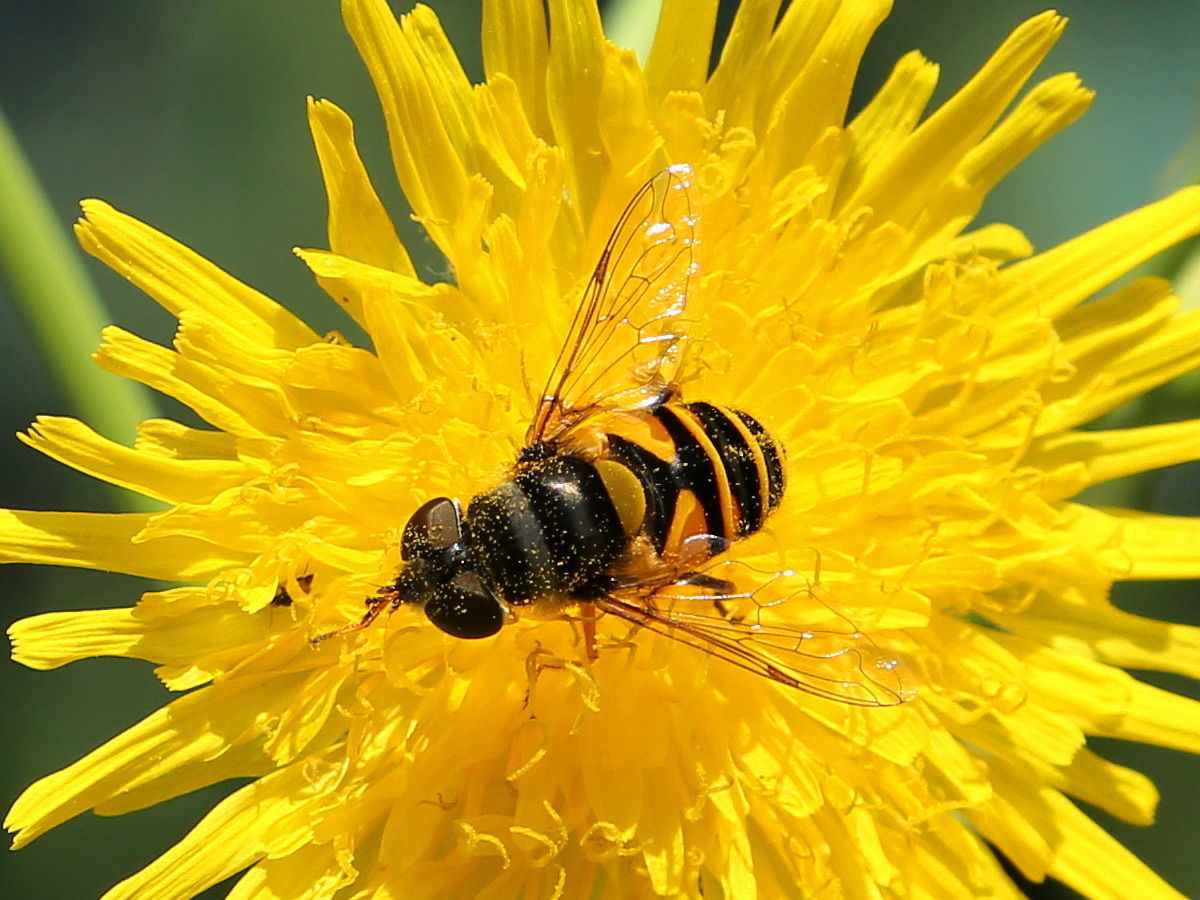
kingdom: Animalia
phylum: Arthropoda
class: Insecta
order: Diptera
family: Syrphidae
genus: Eristalis
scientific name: Eristalis transversa
